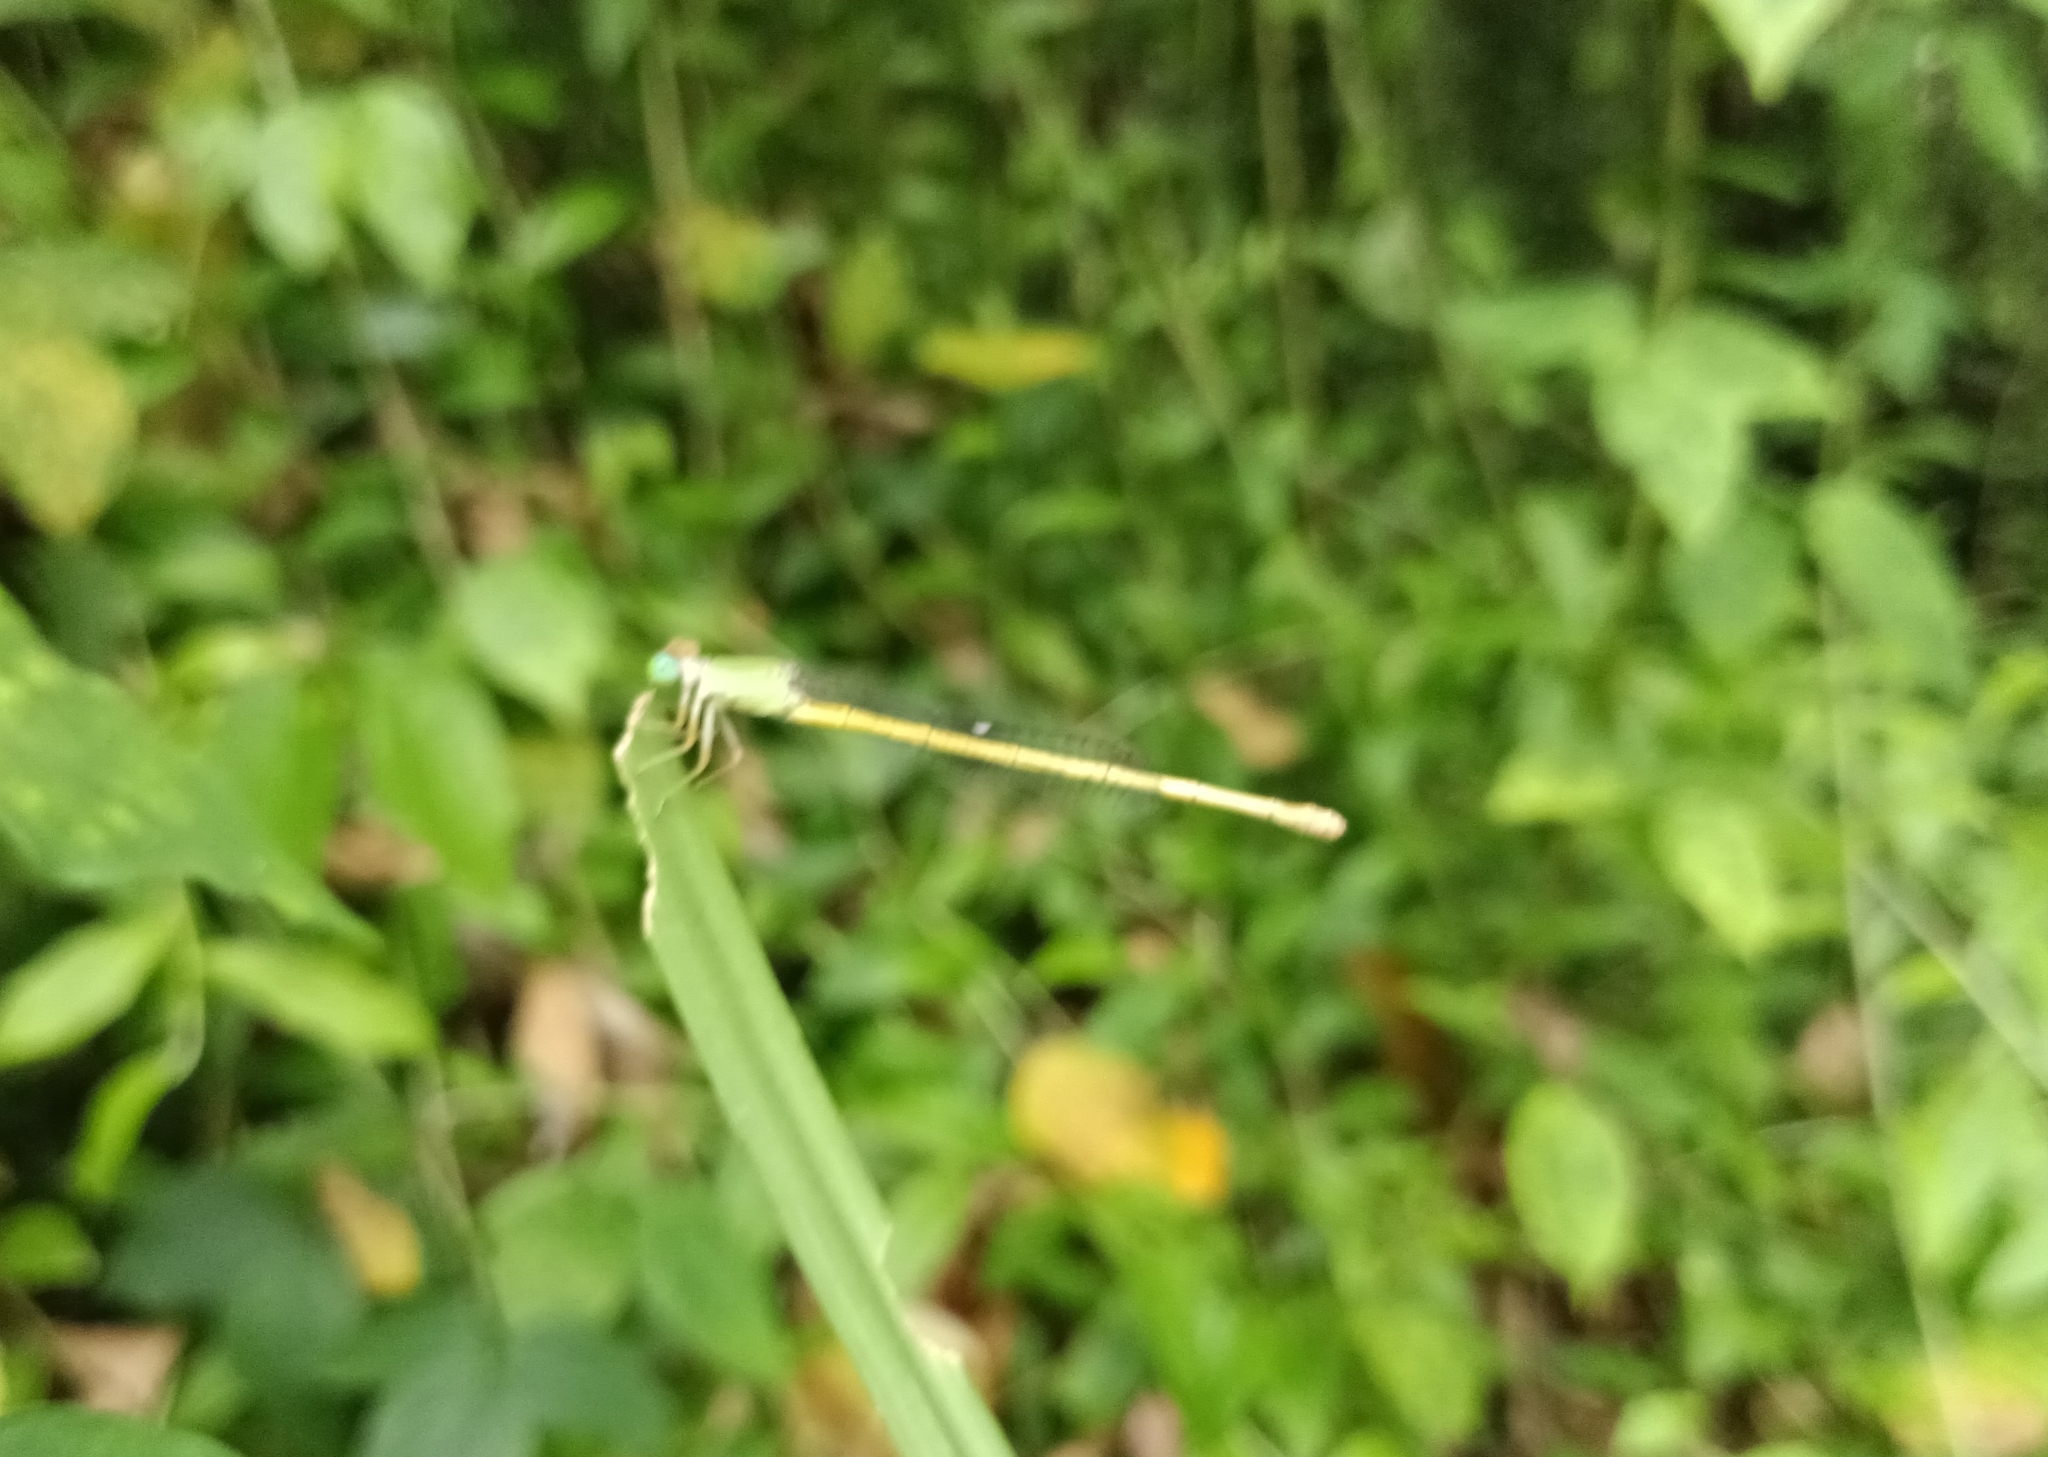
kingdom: Animalia
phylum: Arthropoda
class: Insecta
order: Odonata
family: Coenagrionidae
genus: Ceriagrion
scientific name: Ceriagrion coromandelianum
